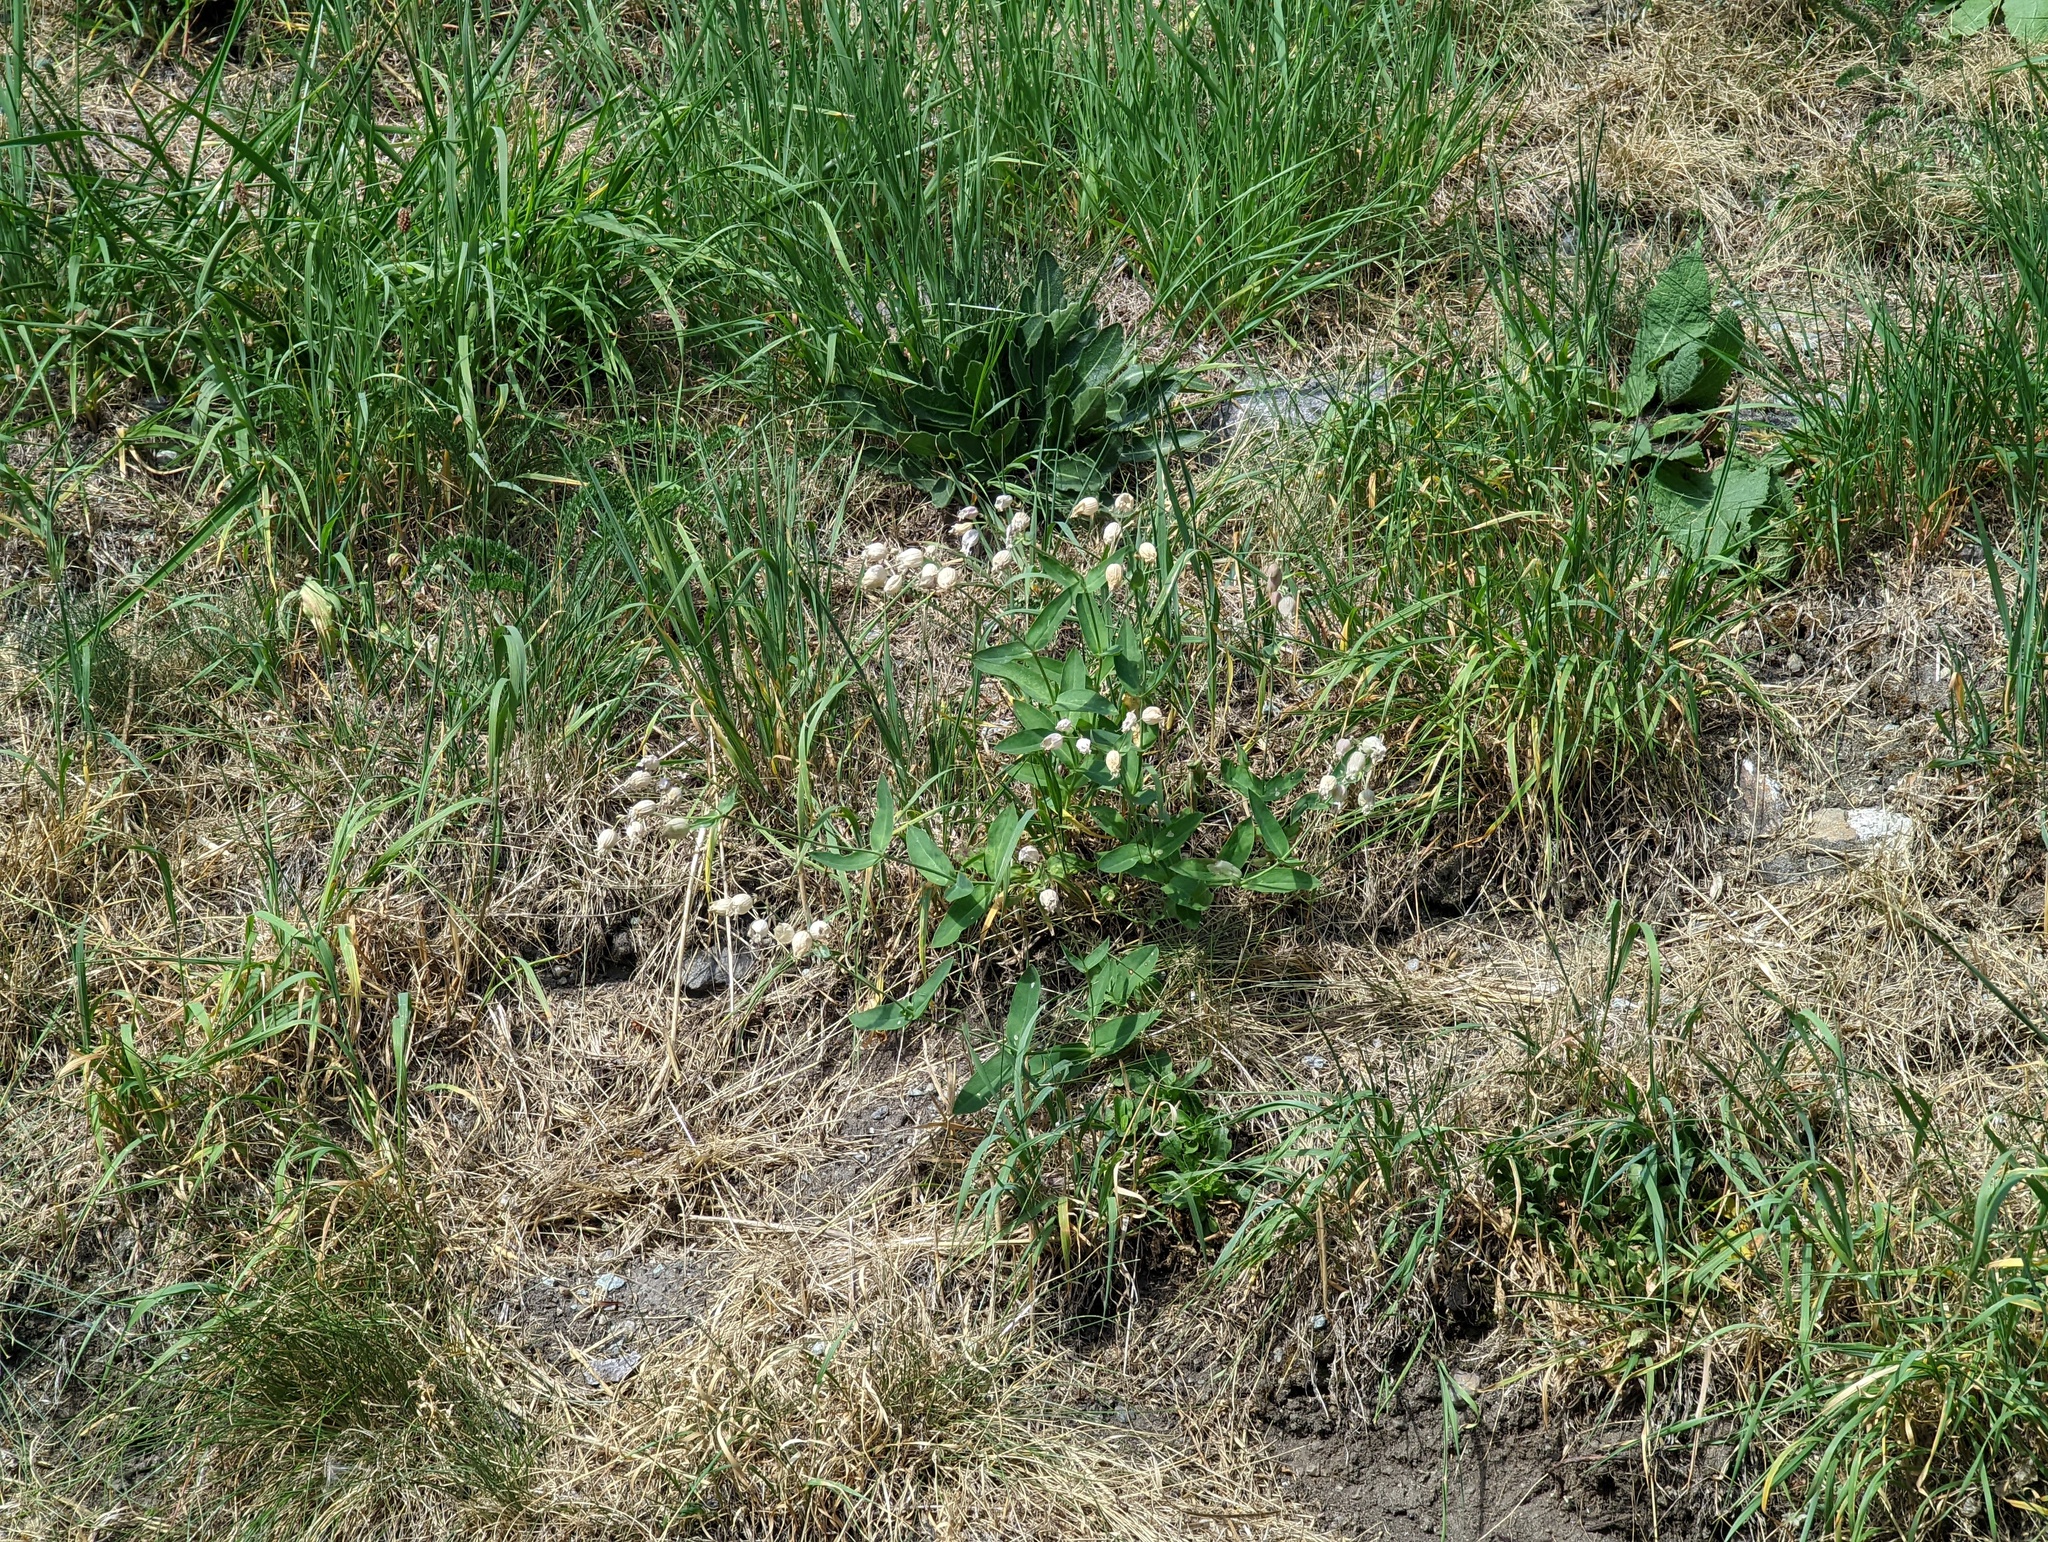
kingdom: Plantae
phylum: Tracheophyta
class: Magnoliopsida
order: Caryophyllales
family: Caryophyllaceae
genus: Silene
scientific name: Silene vulgaris
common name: Bladder campion
